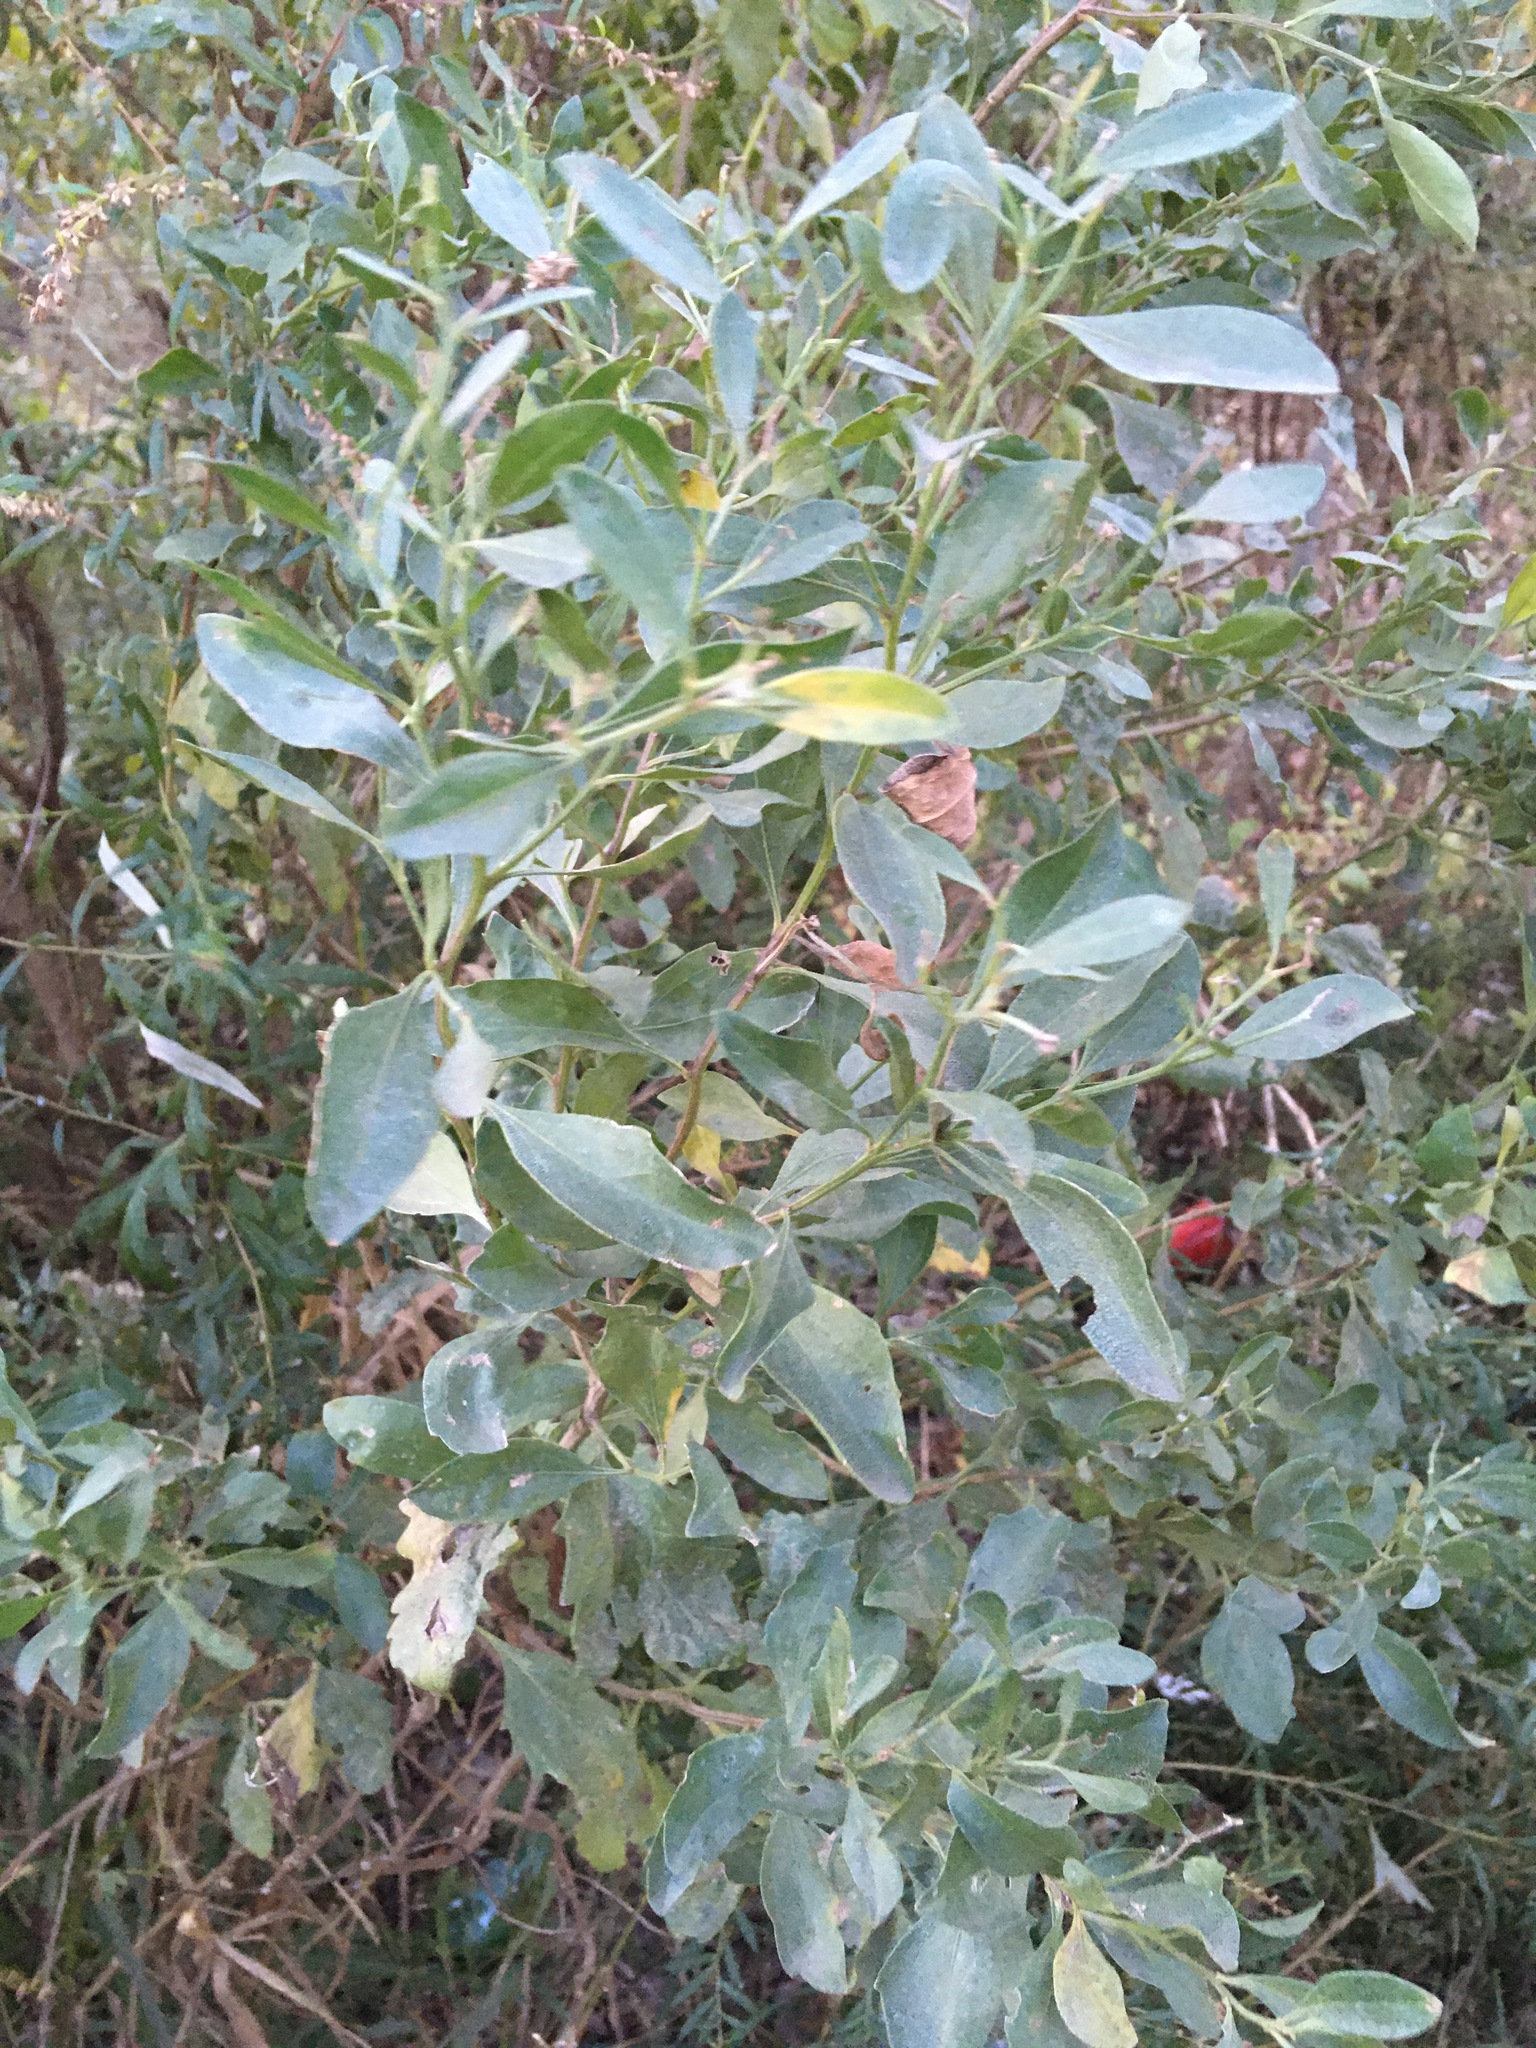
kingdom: Plantae
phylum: Tracheophyta
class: Magnoliopsida
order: Asterales
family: Asteraceae
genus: Baccharis
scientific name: Baccharis halimifolia
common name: Eastern baccharis
